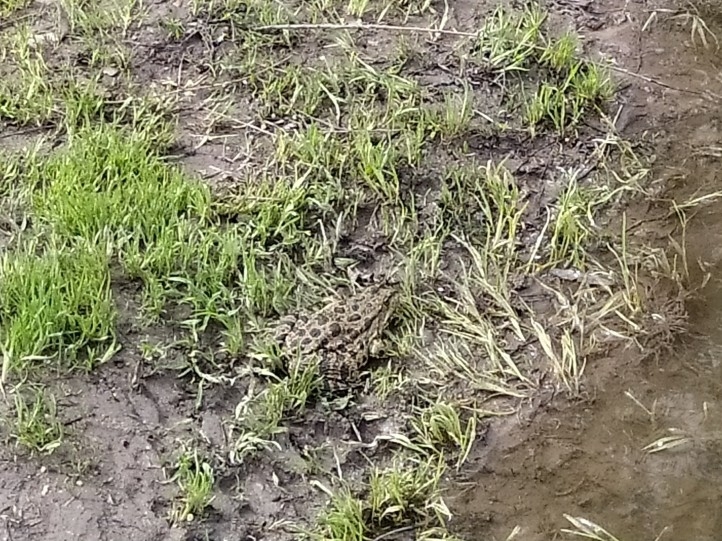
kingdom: Animalia
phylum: Chordata
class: Amphibia
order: Anura
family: Ranidae
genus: Pelophylax
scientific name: Pelophylax ridibundus
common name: Marsh frog
